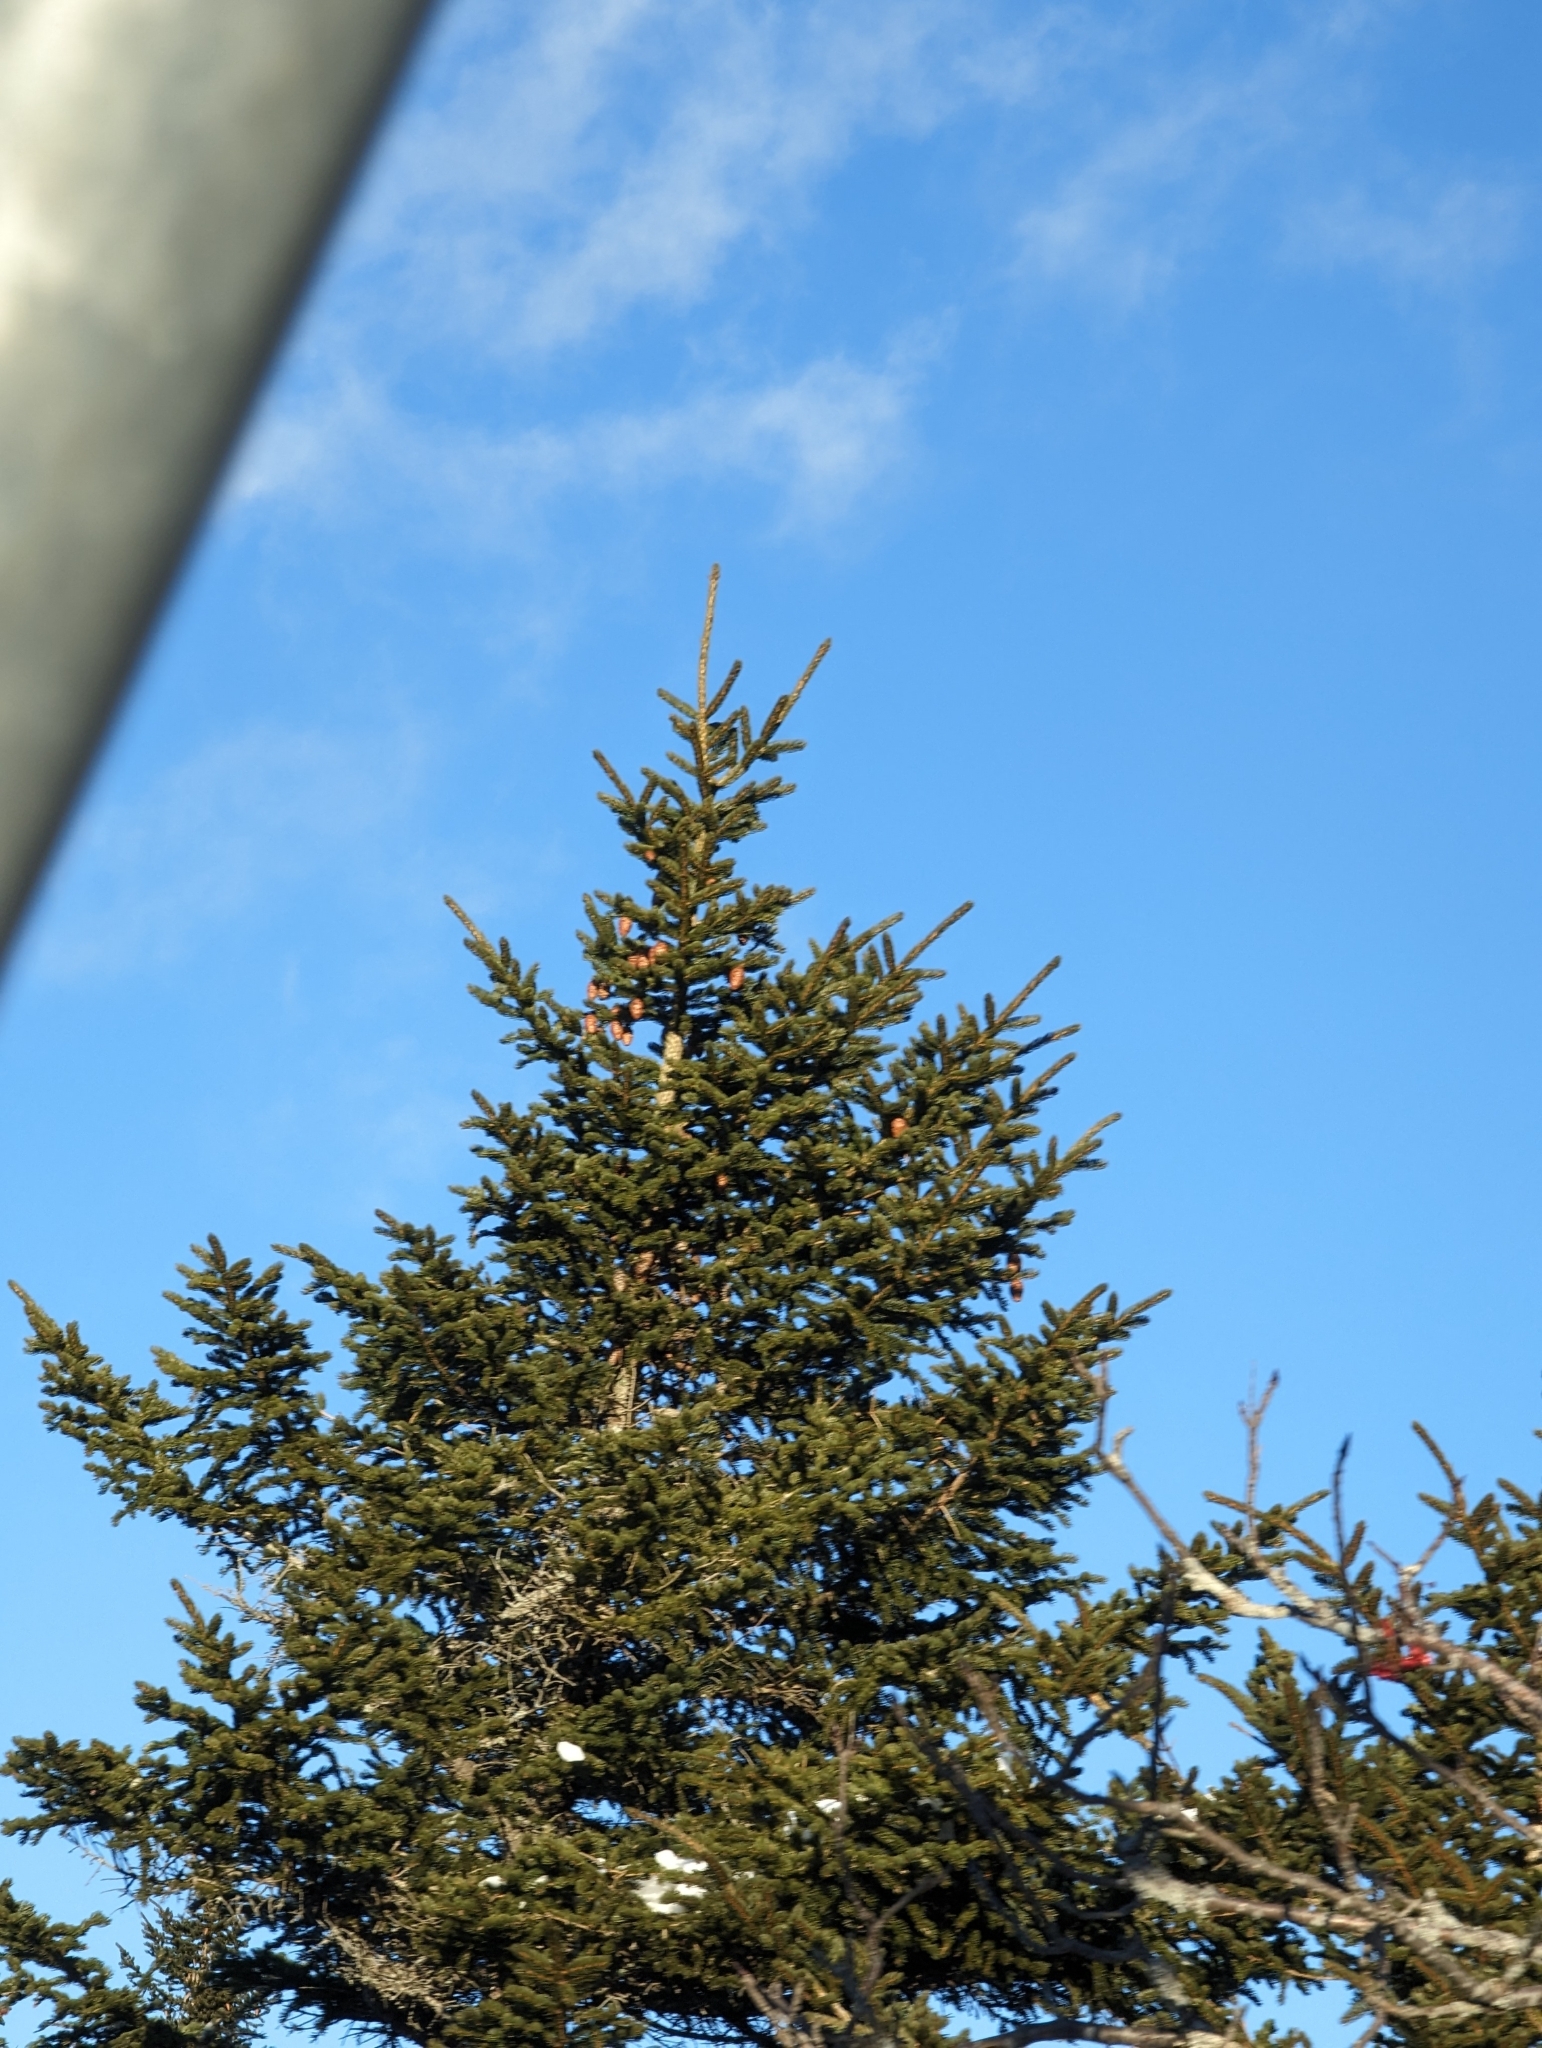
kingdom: Plantae
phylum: Tracheophyta
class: Pinopsida
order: Pinales
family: Pinaceae
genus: Picea
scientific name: Picea rubens
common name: Red spruce
